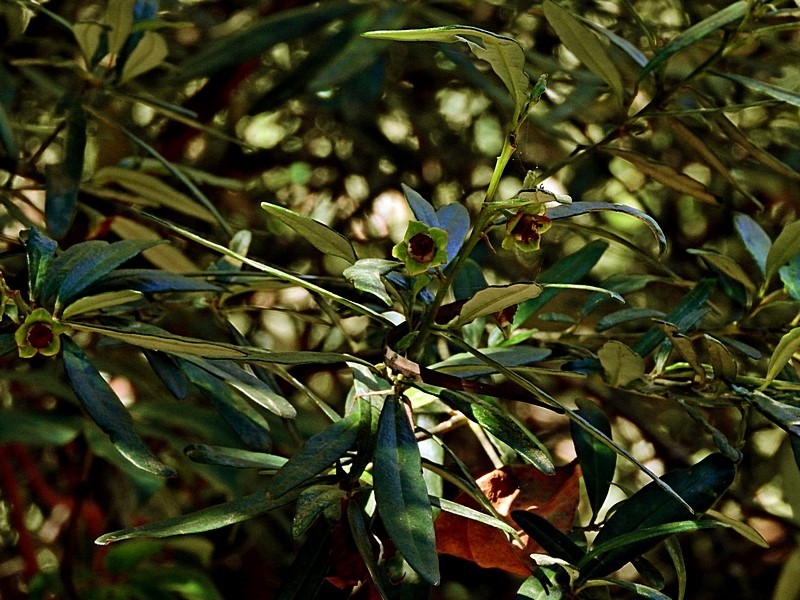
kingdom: Plantae
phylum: Tracheophyta
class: Magnoliopsida
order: Malpighiales
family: Euphorbiaceae
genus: Beyeria
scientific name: Beyeria lasiocarpa
